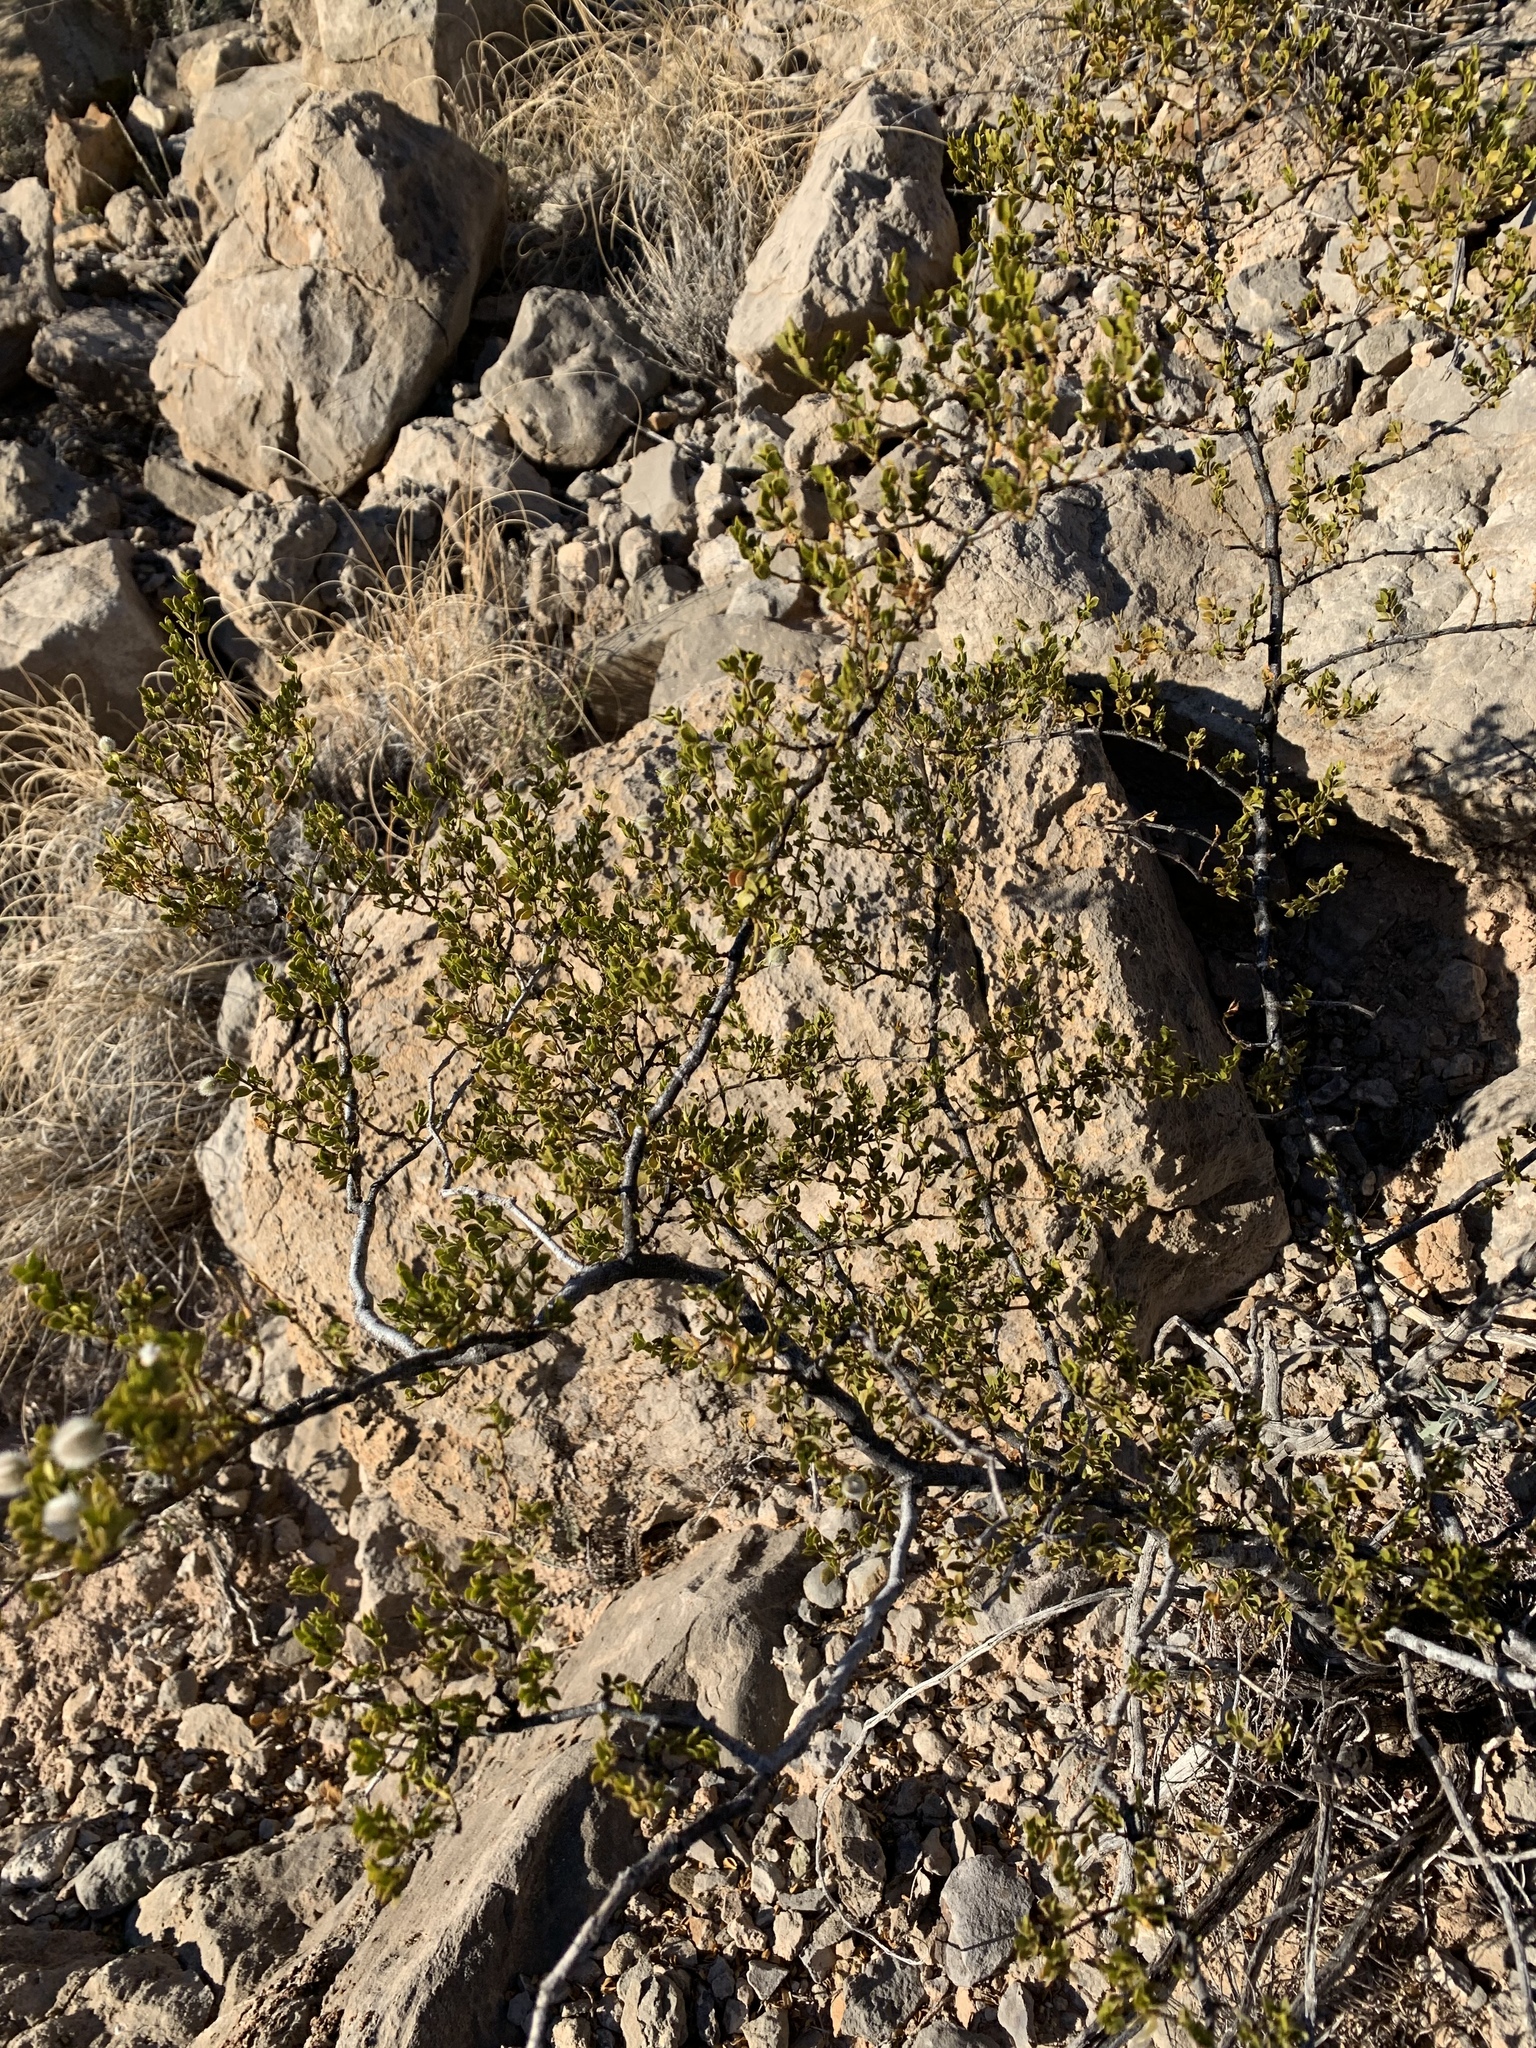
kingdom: Plantae
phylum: Tracheophyta
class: Magnoliopsida
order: Zygophyllales
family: Zygophyllaceae
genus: Larrea
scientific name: Larrea tridentata
